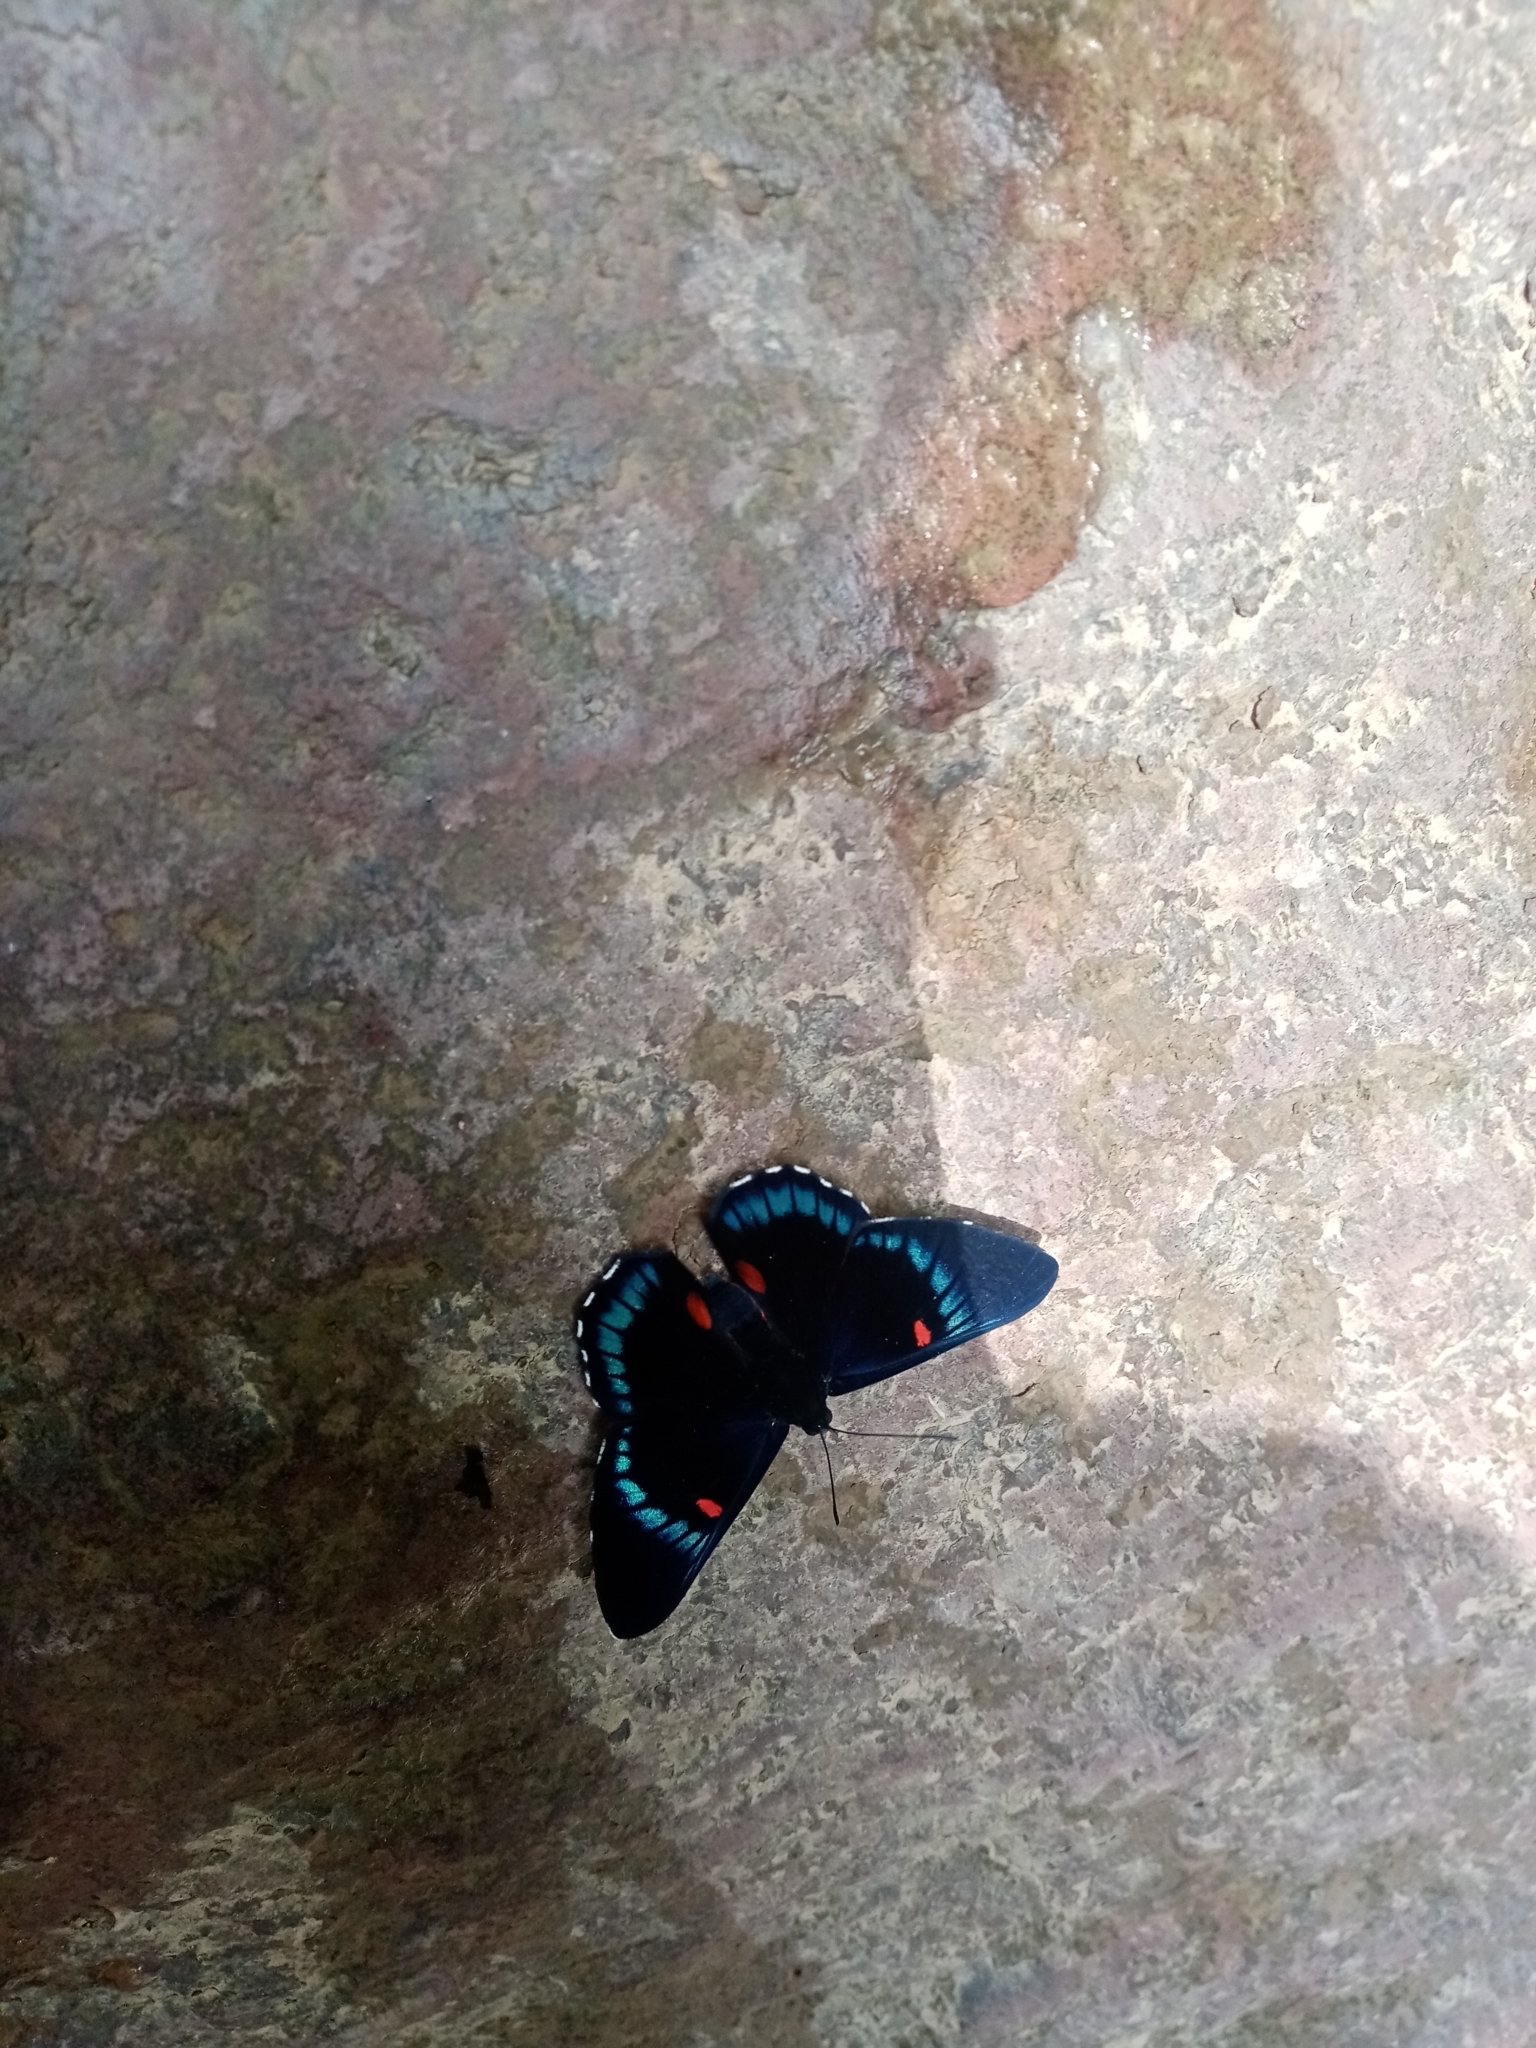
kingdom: Animalia
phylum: Arthropoda
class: Insecta
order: Lepidoptera
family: Lycaenidae
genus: Necyria
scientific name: Necyria bellona
